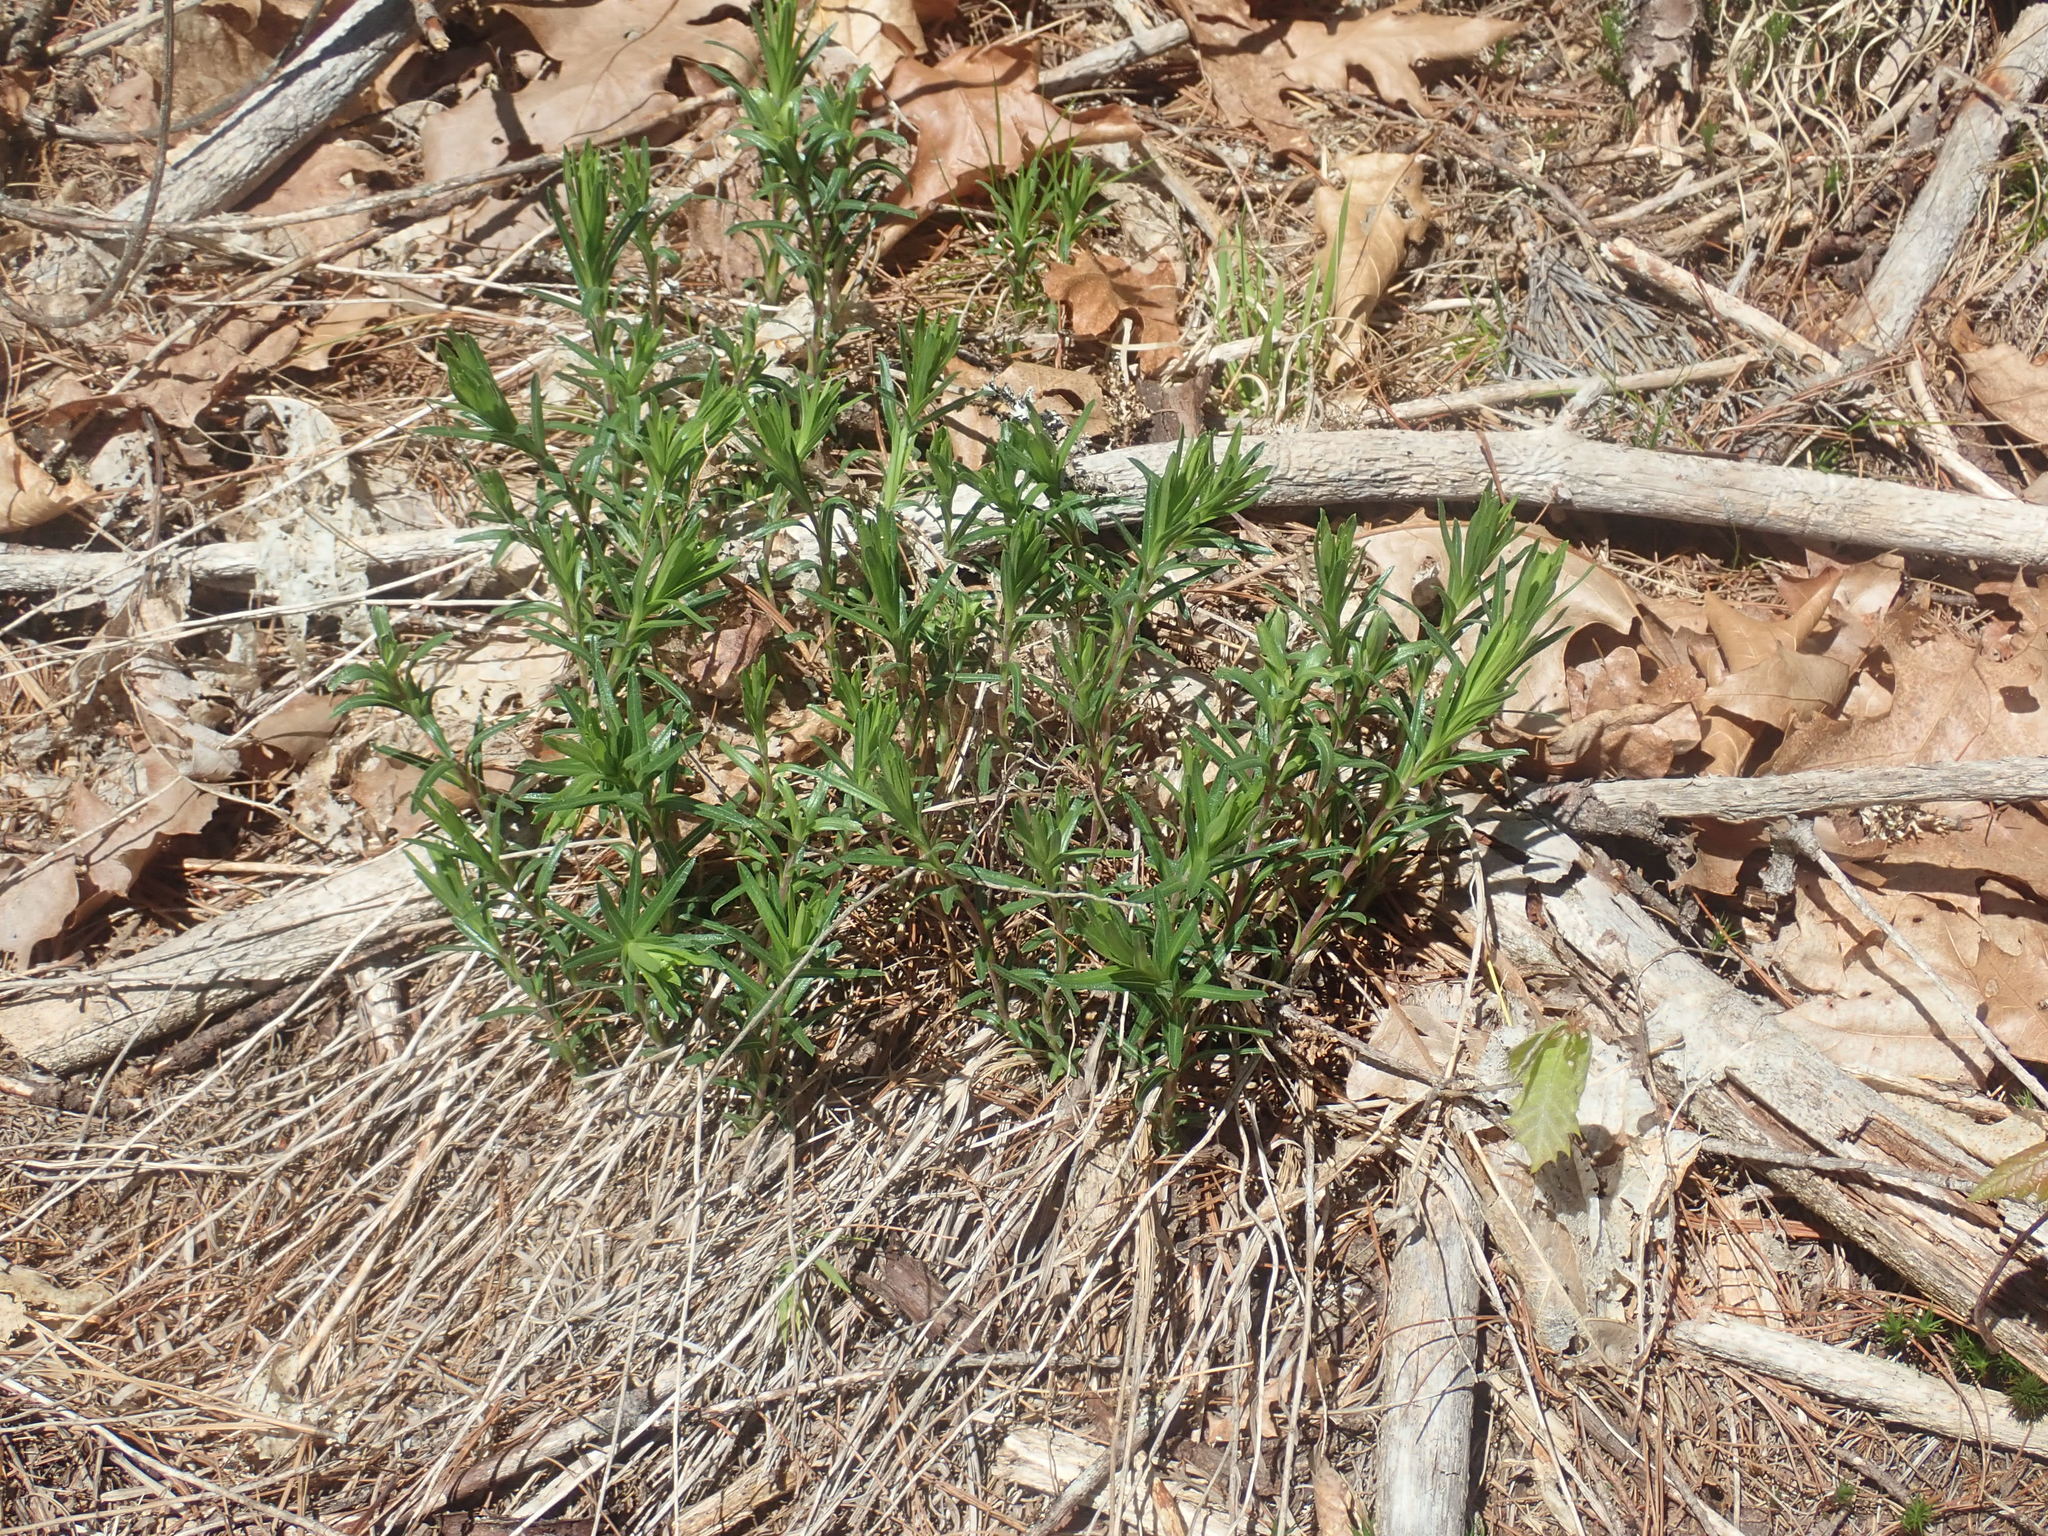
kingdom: Plantae
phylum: Tracheophyta
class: Magnoliopsida
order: Asterales
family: Asteraceae
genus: Ionactis
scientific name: Ionactis linariifolia
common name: Flax-leaf aster
